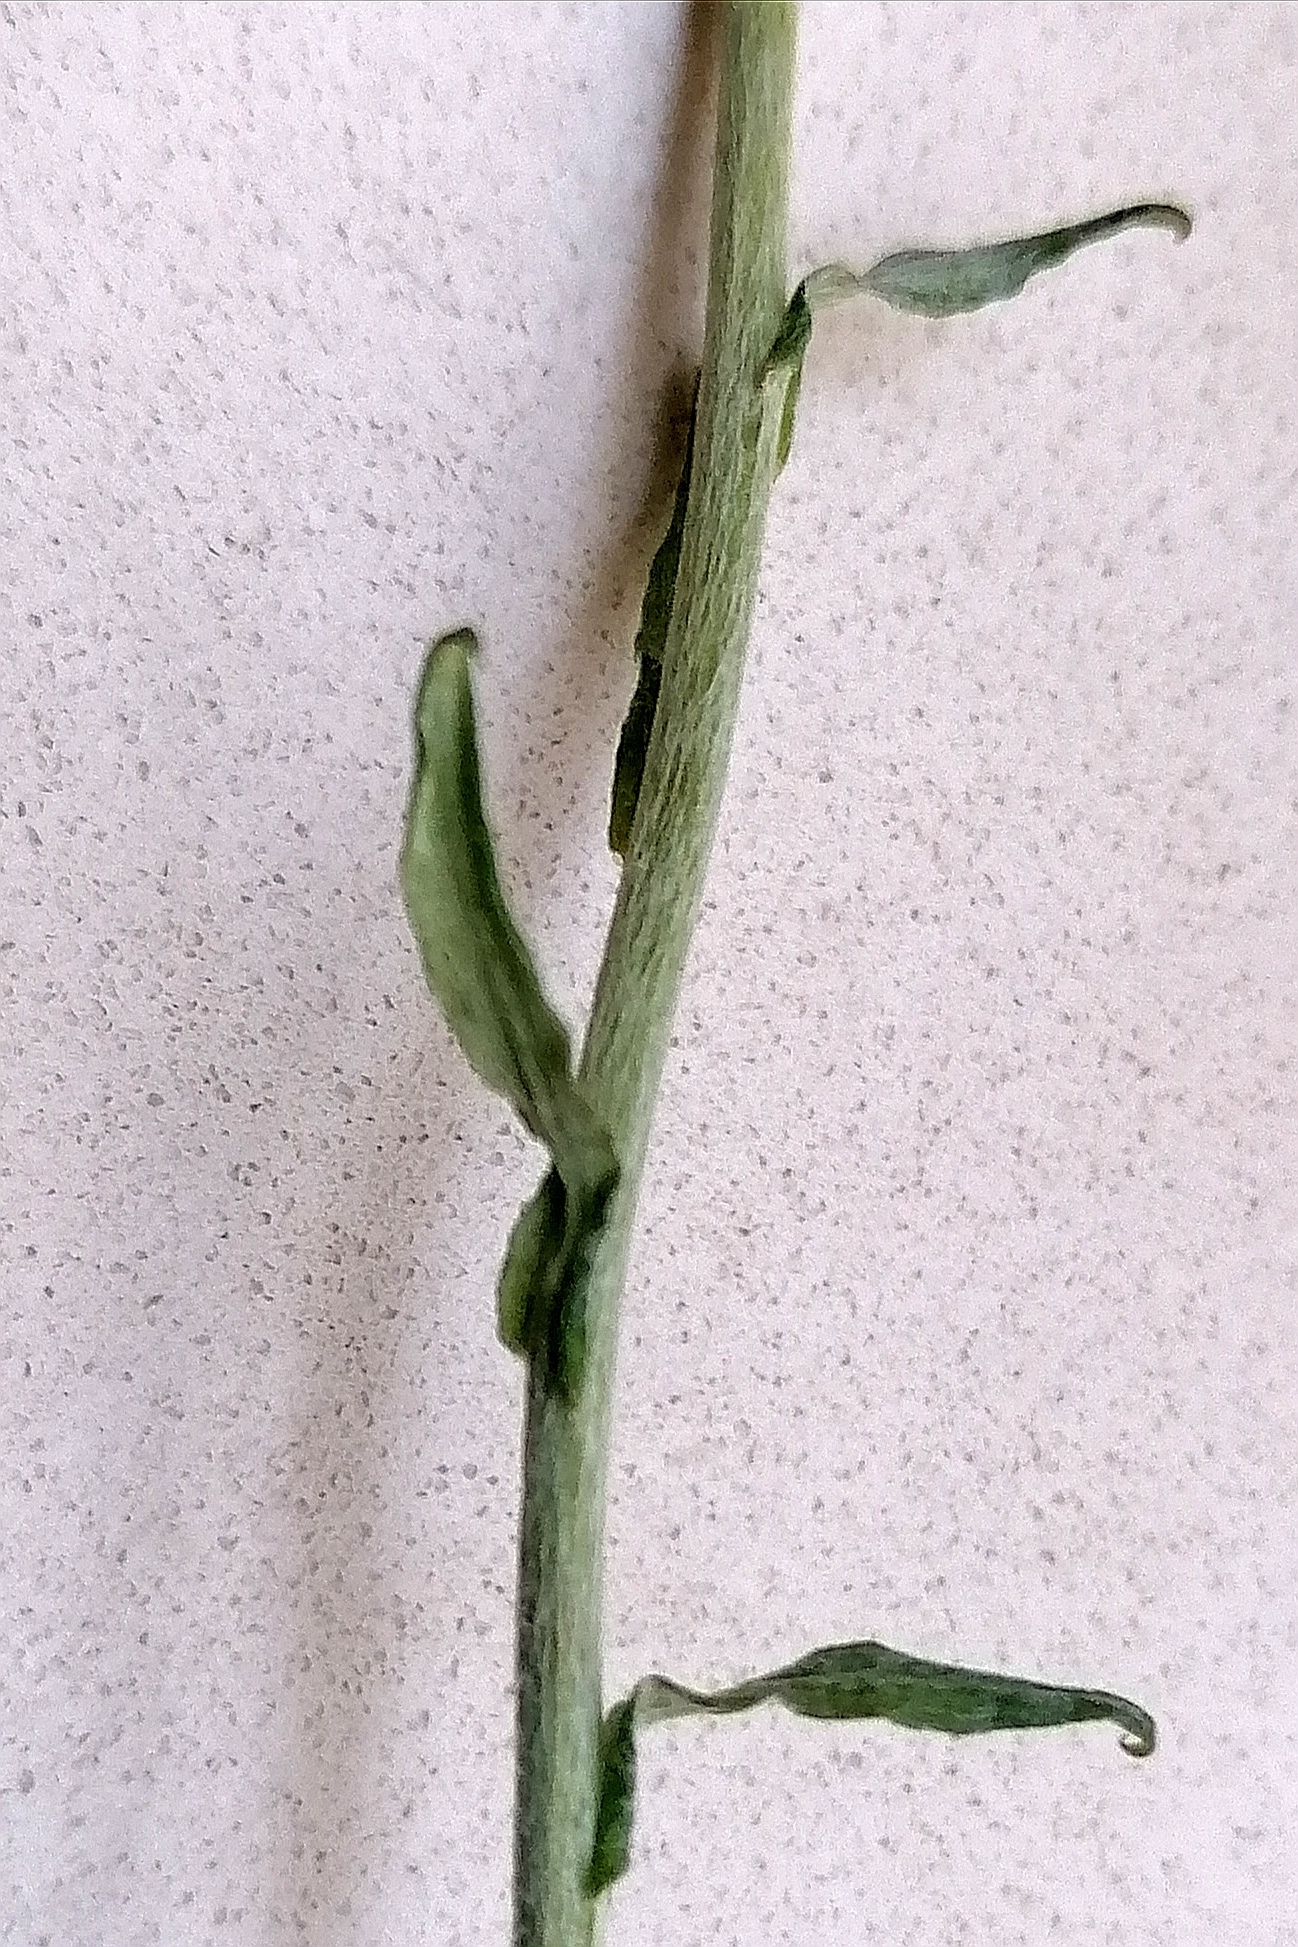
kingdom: Plantae
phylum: Tracheophyta
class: Magnoliopsida
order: Asterales
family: Asteraceae
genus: Helichrysum
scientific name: Helichrysum cymosum
